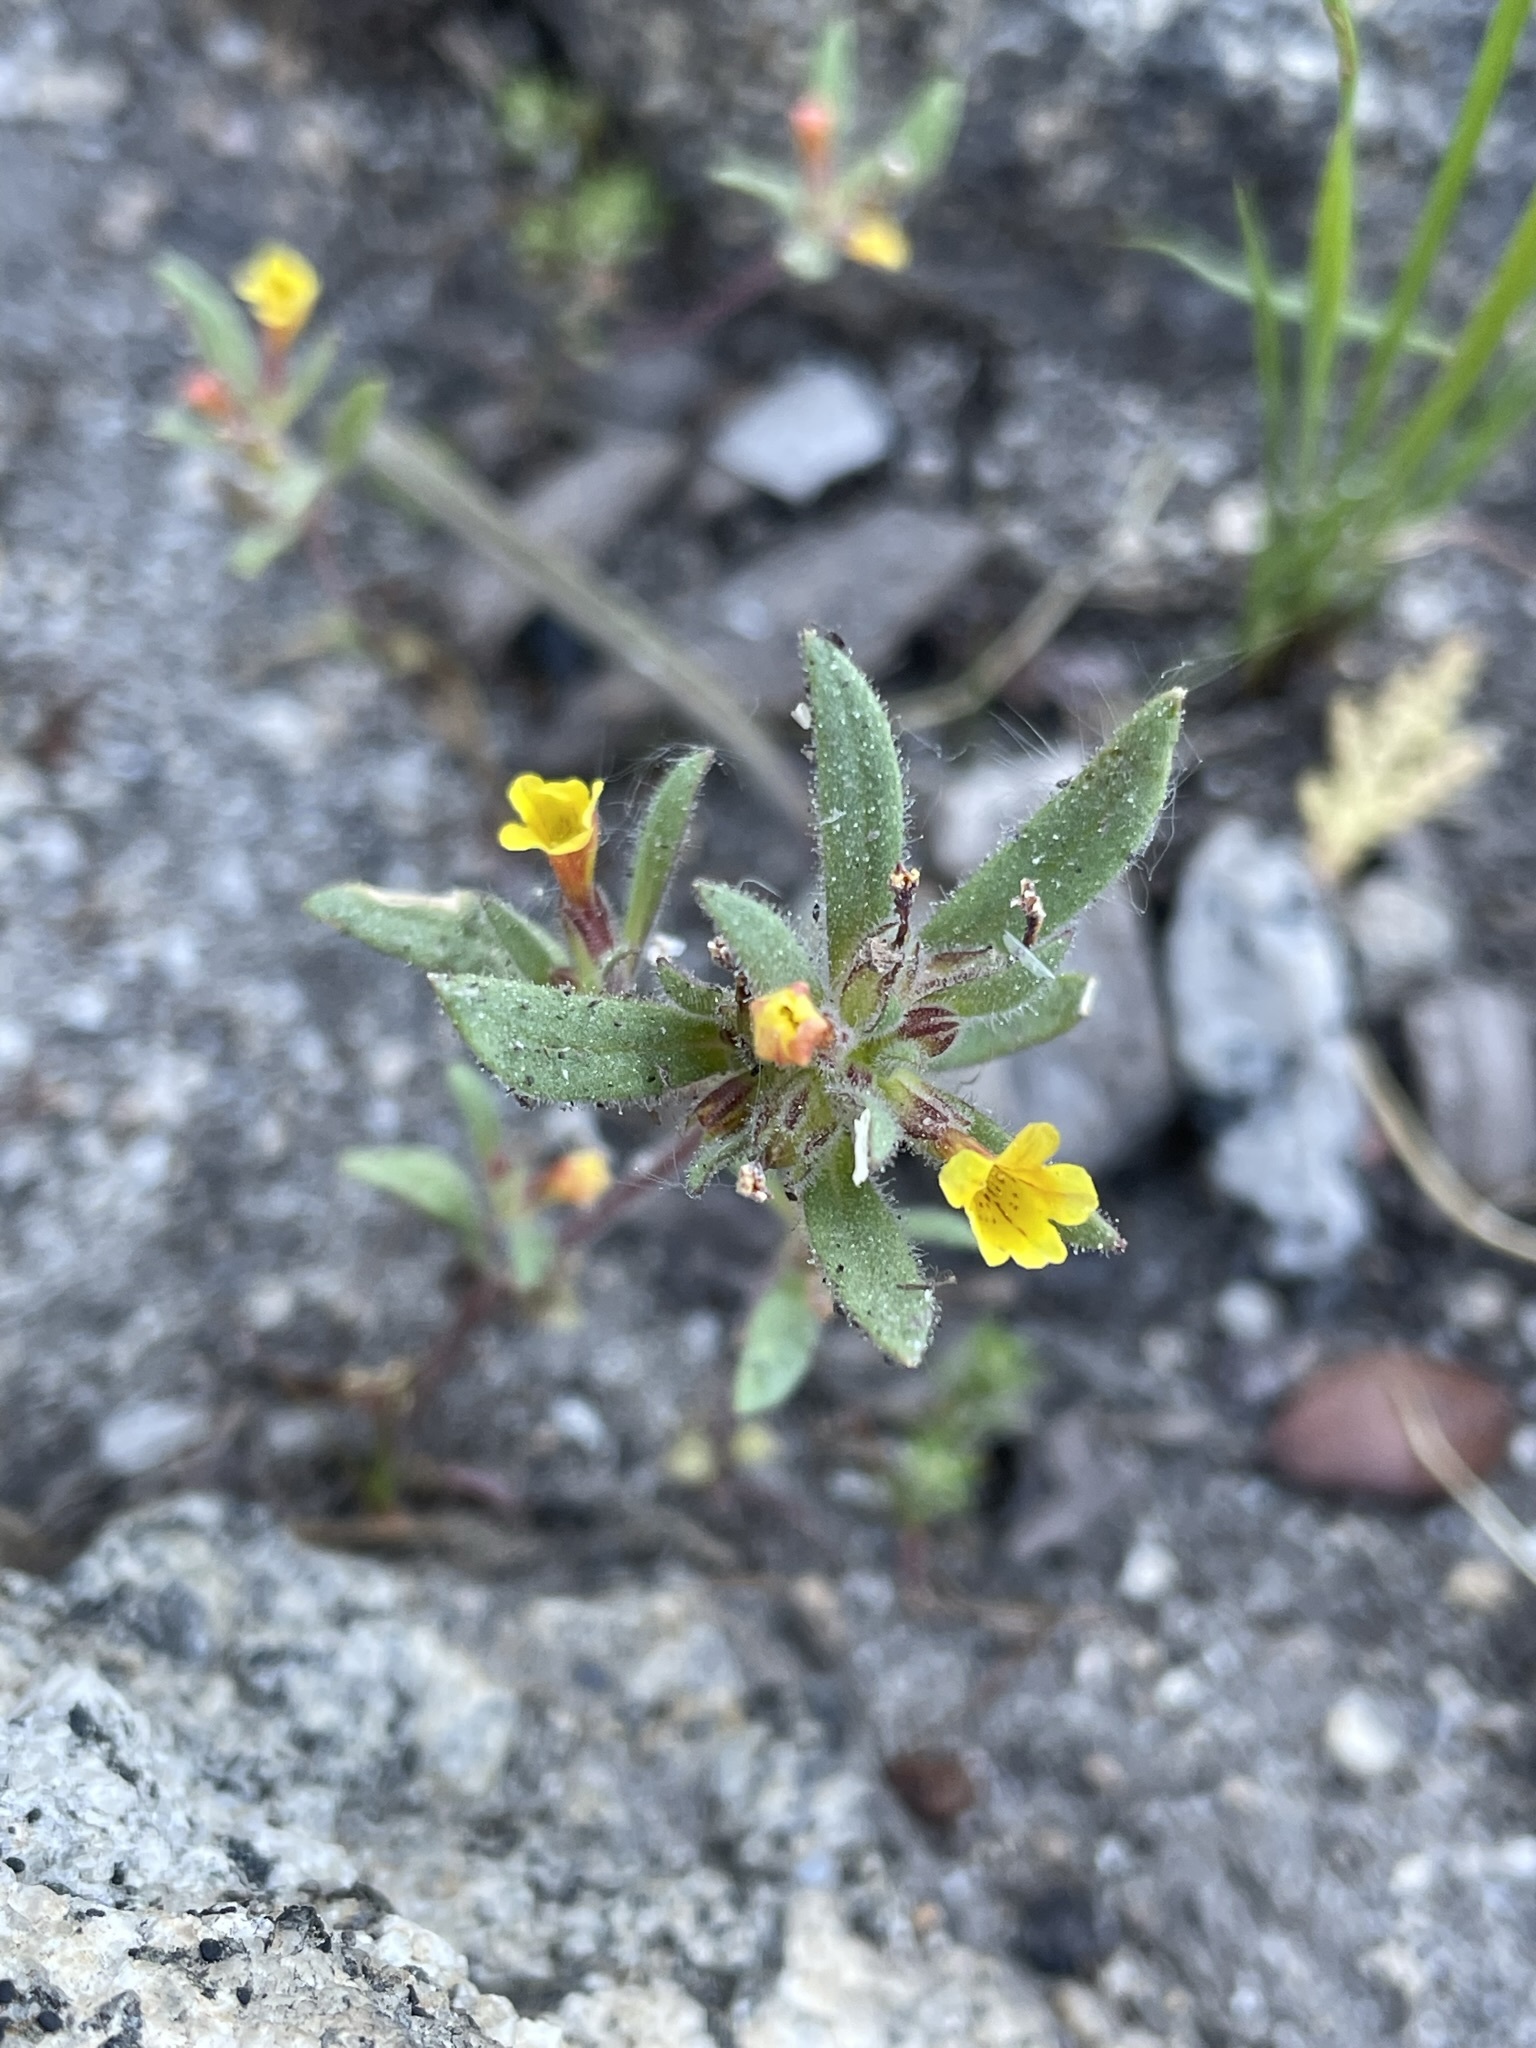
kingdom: Plantae
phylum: Tracheophyta
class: Magnoliopsida
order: Lamiales
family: Phrymaceae
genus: Diplacus
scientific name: Diplacus leptaleus
